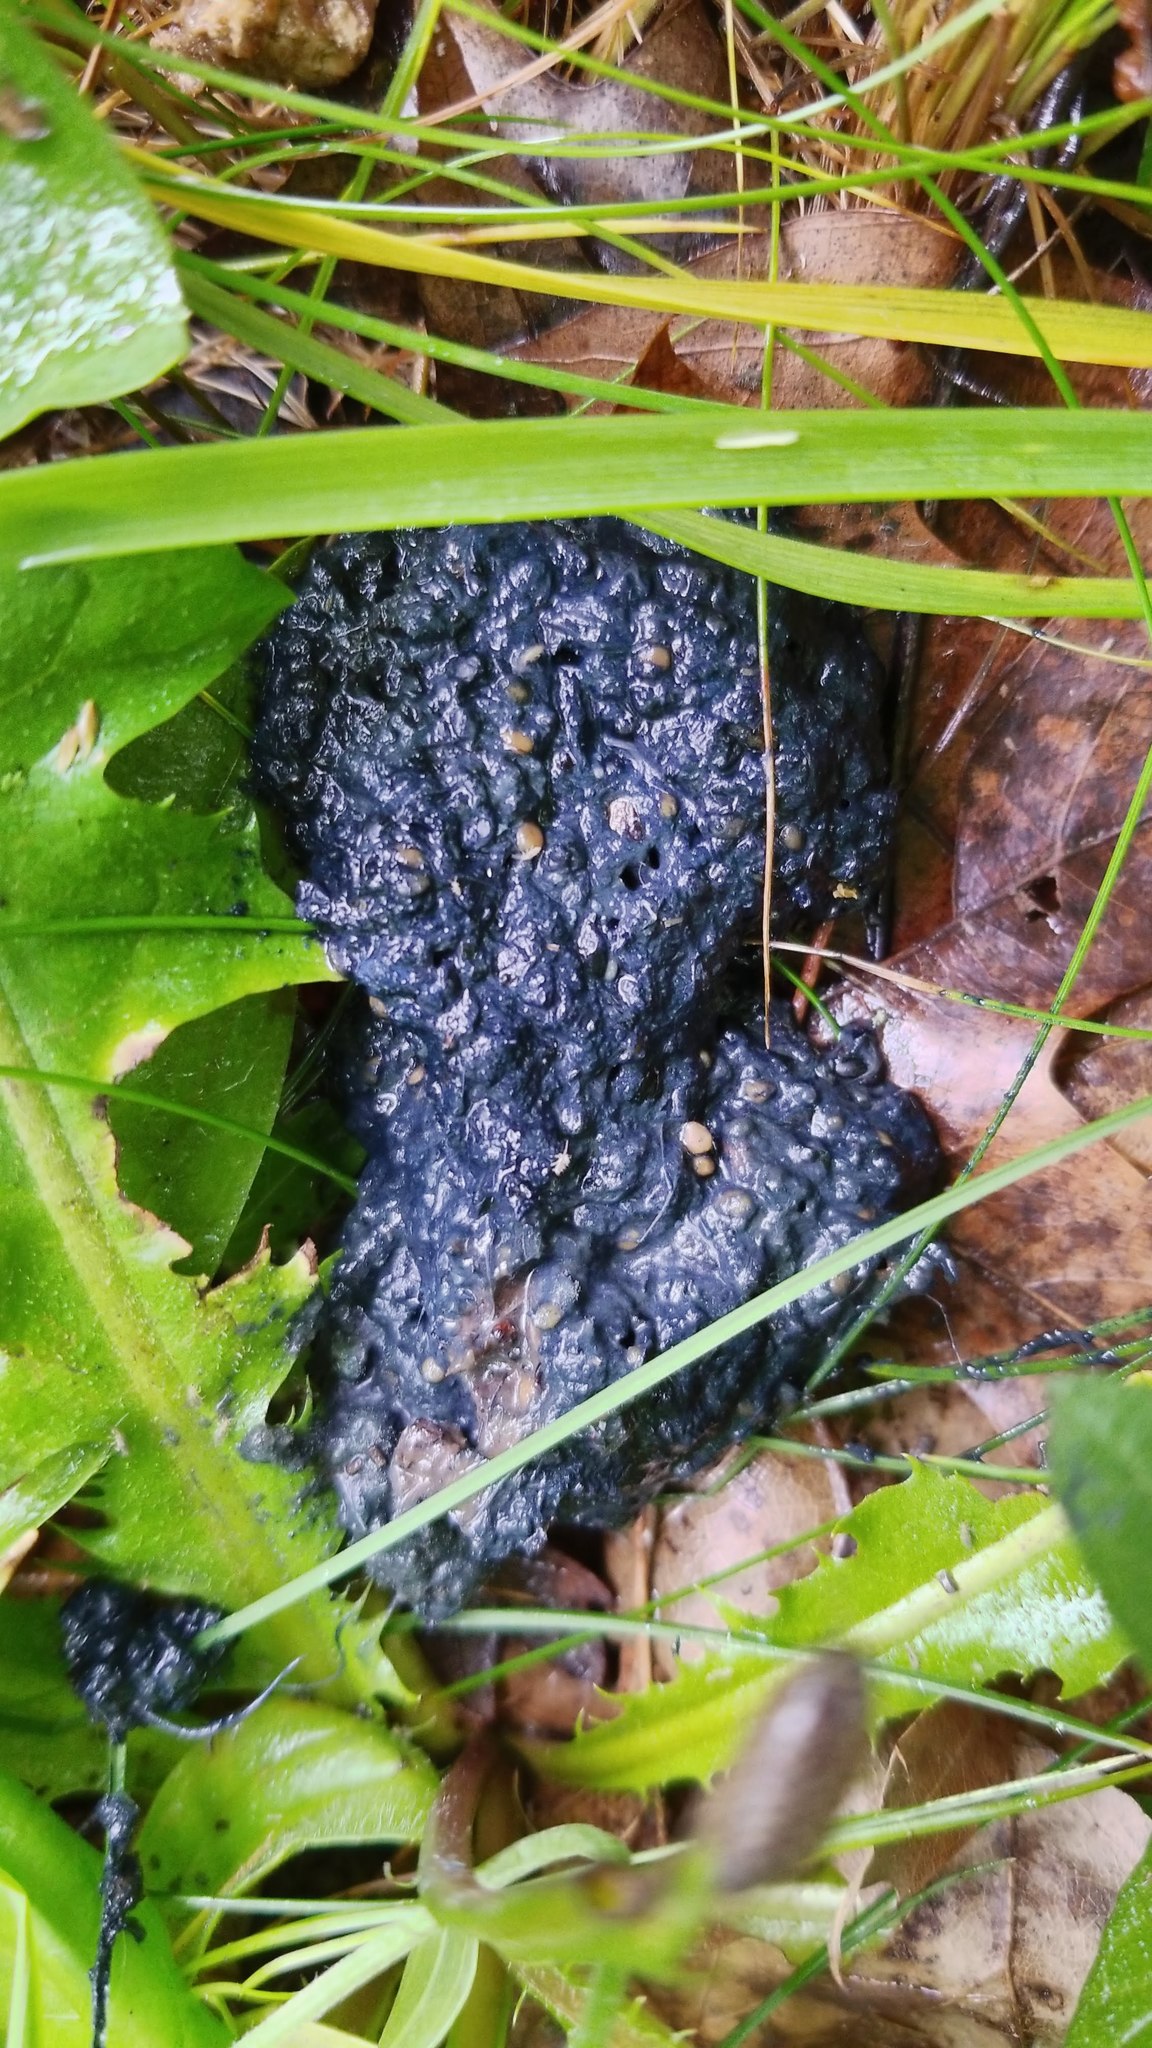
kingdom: Animalia
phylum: Chordata
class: Mammalia
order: Carnivora
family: Mephitidae
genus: Mephitis
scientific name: Mephitis mephitis
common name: Striped skunk
